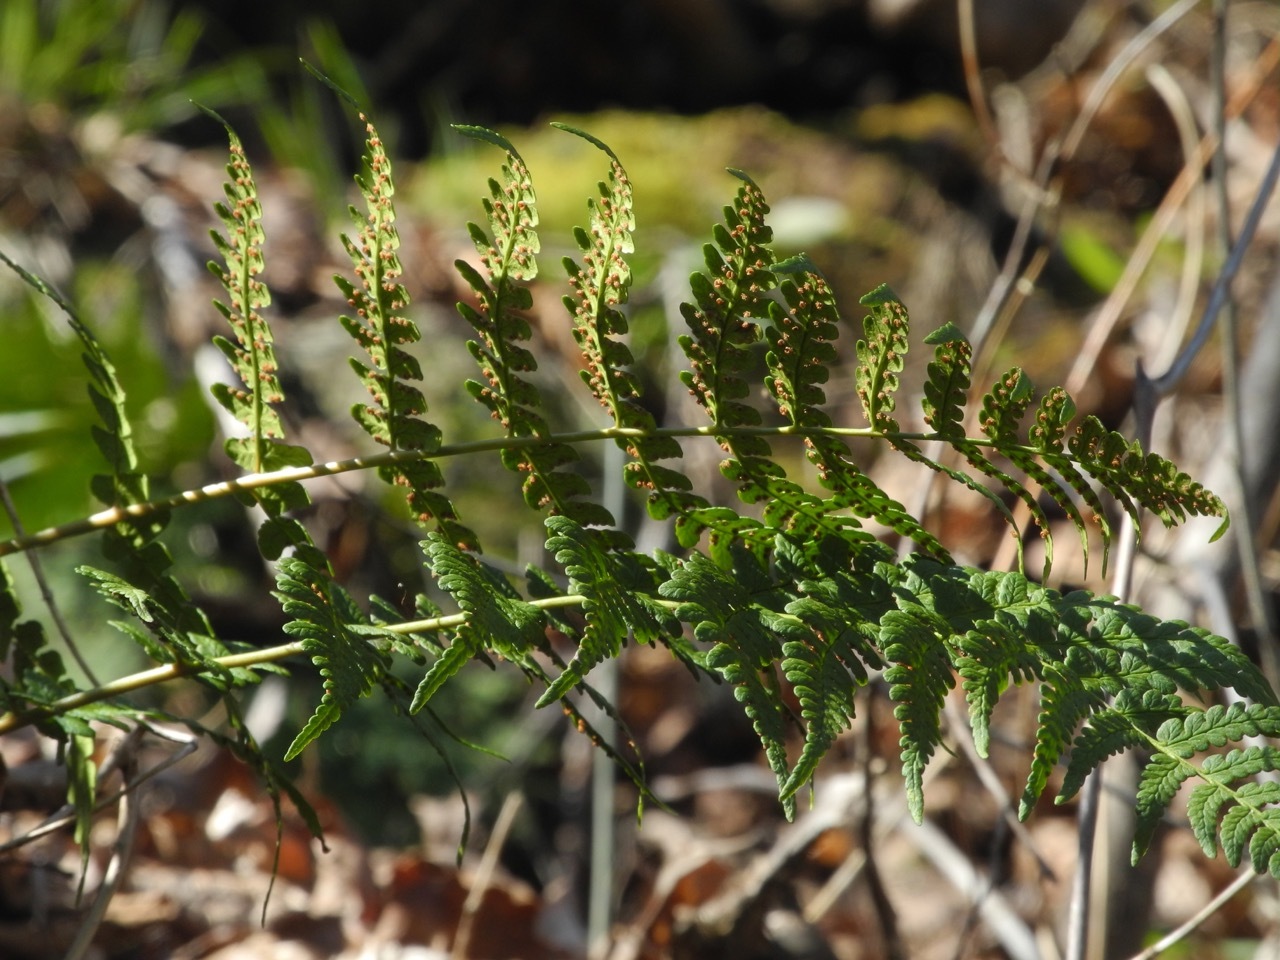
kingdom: Plantae
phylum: Tracheophyta
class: Polypodiopsida
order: Polypodiales
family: Dryopteridaceae
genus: Dryopteris
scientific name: Dryopteris marginalis
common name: Marginal wood fern
